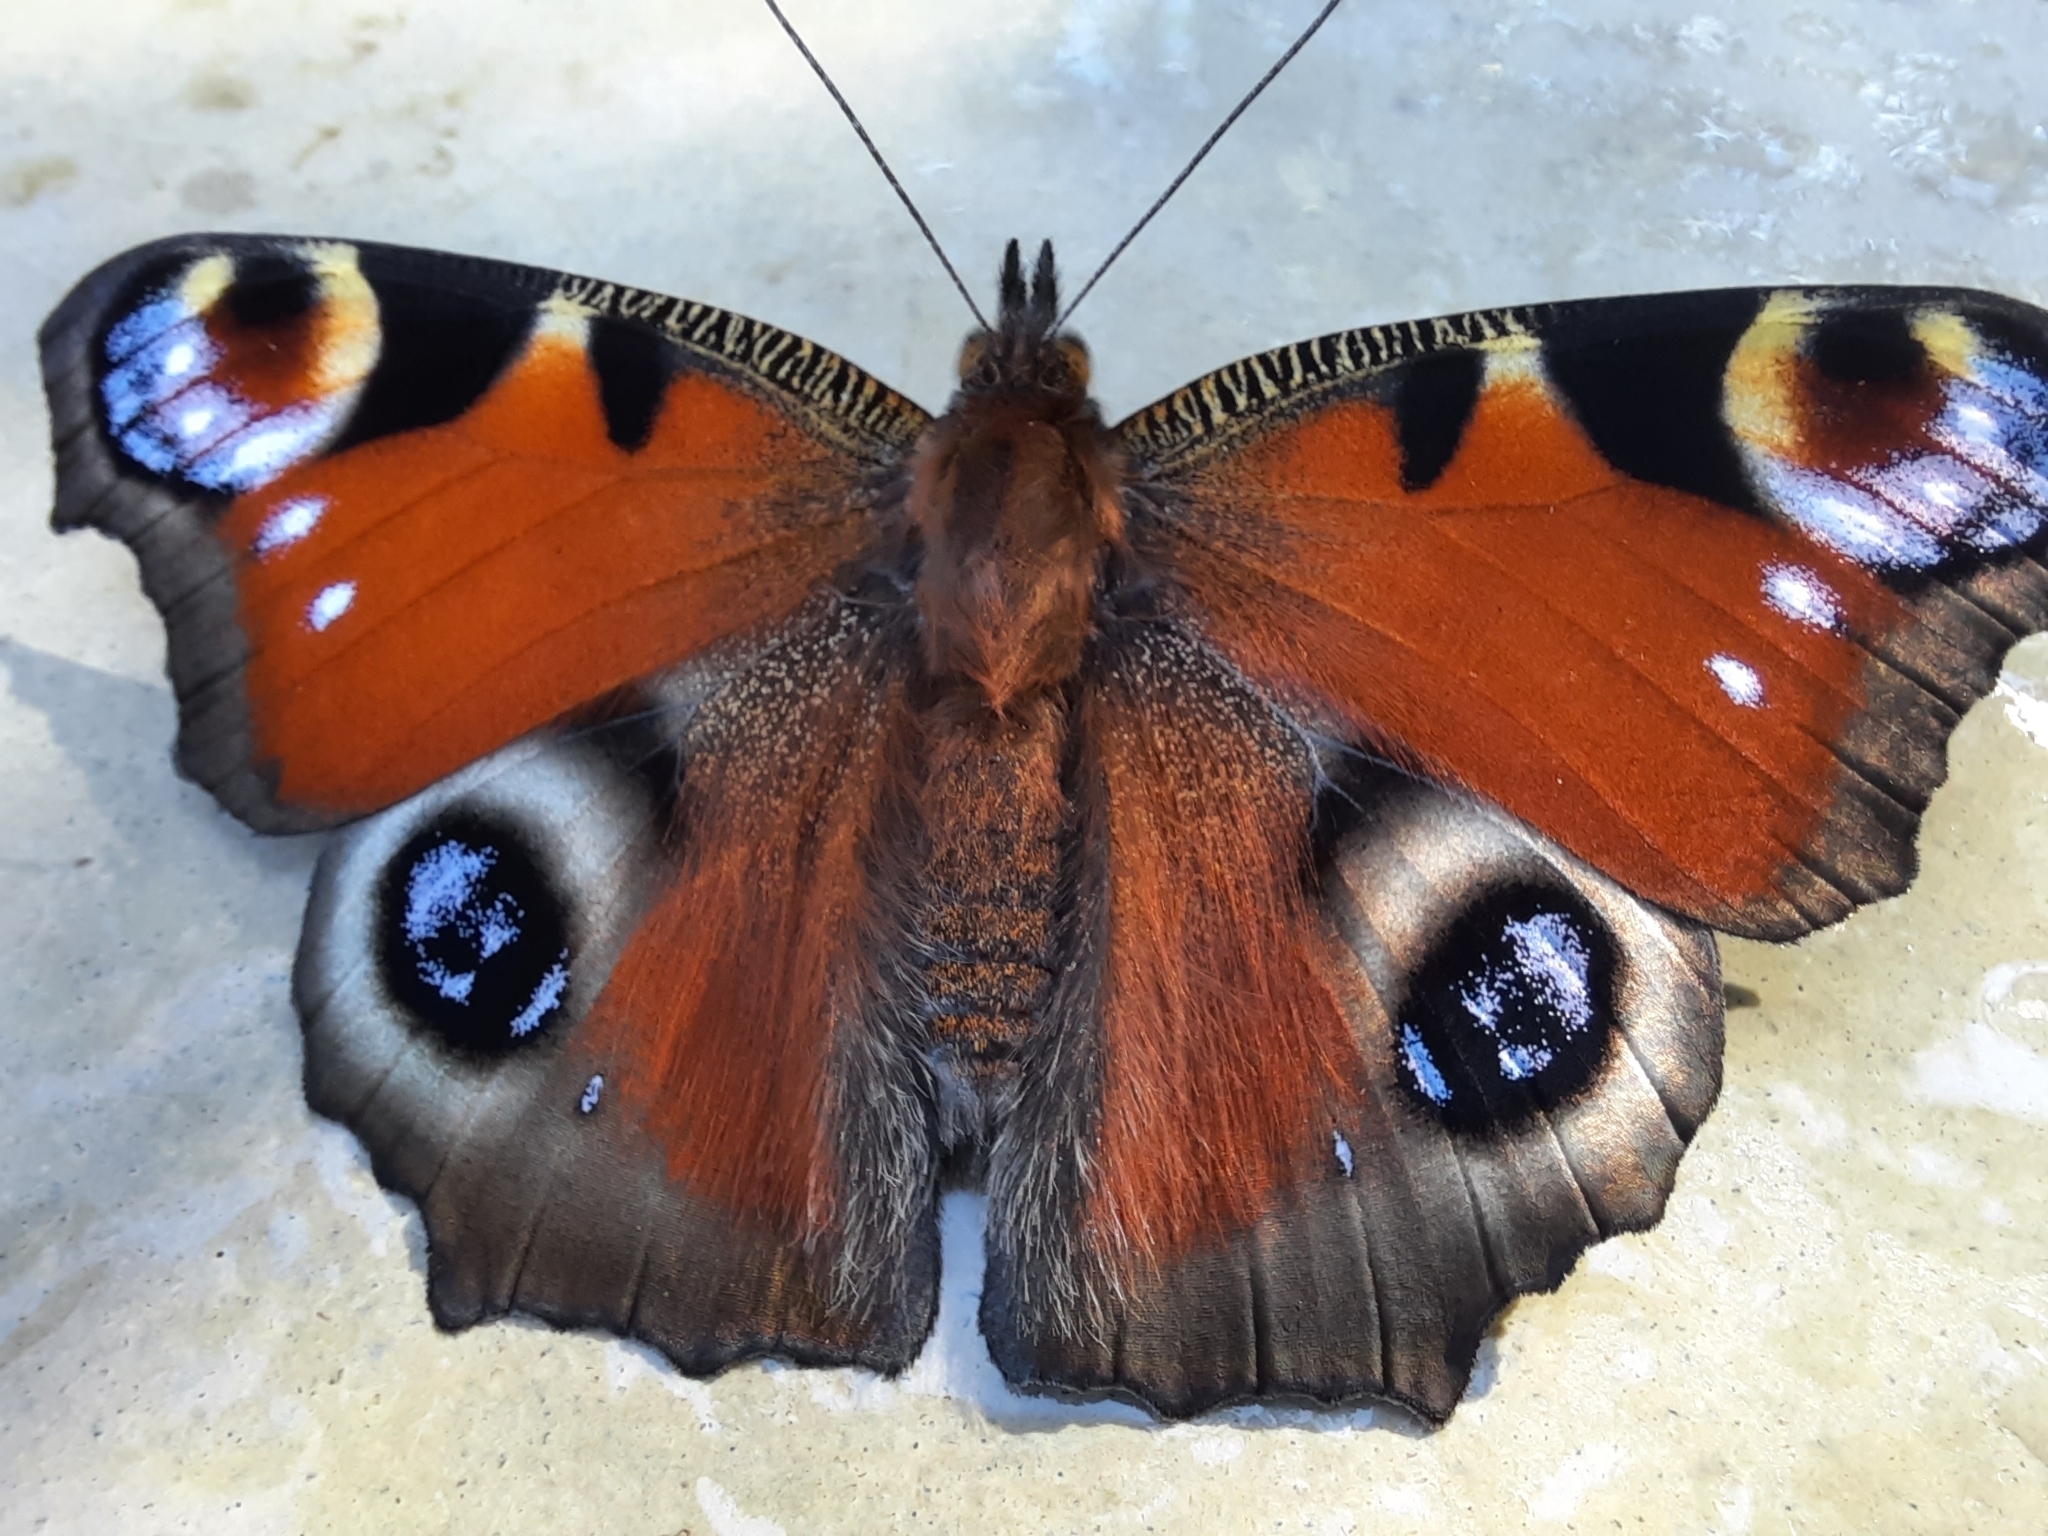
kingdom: Animalia
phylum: Arthropoda
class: Insecta
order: Lepidoptera
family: Nymphalidae
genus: Aglais
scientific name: Aglais io
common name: Peacock
